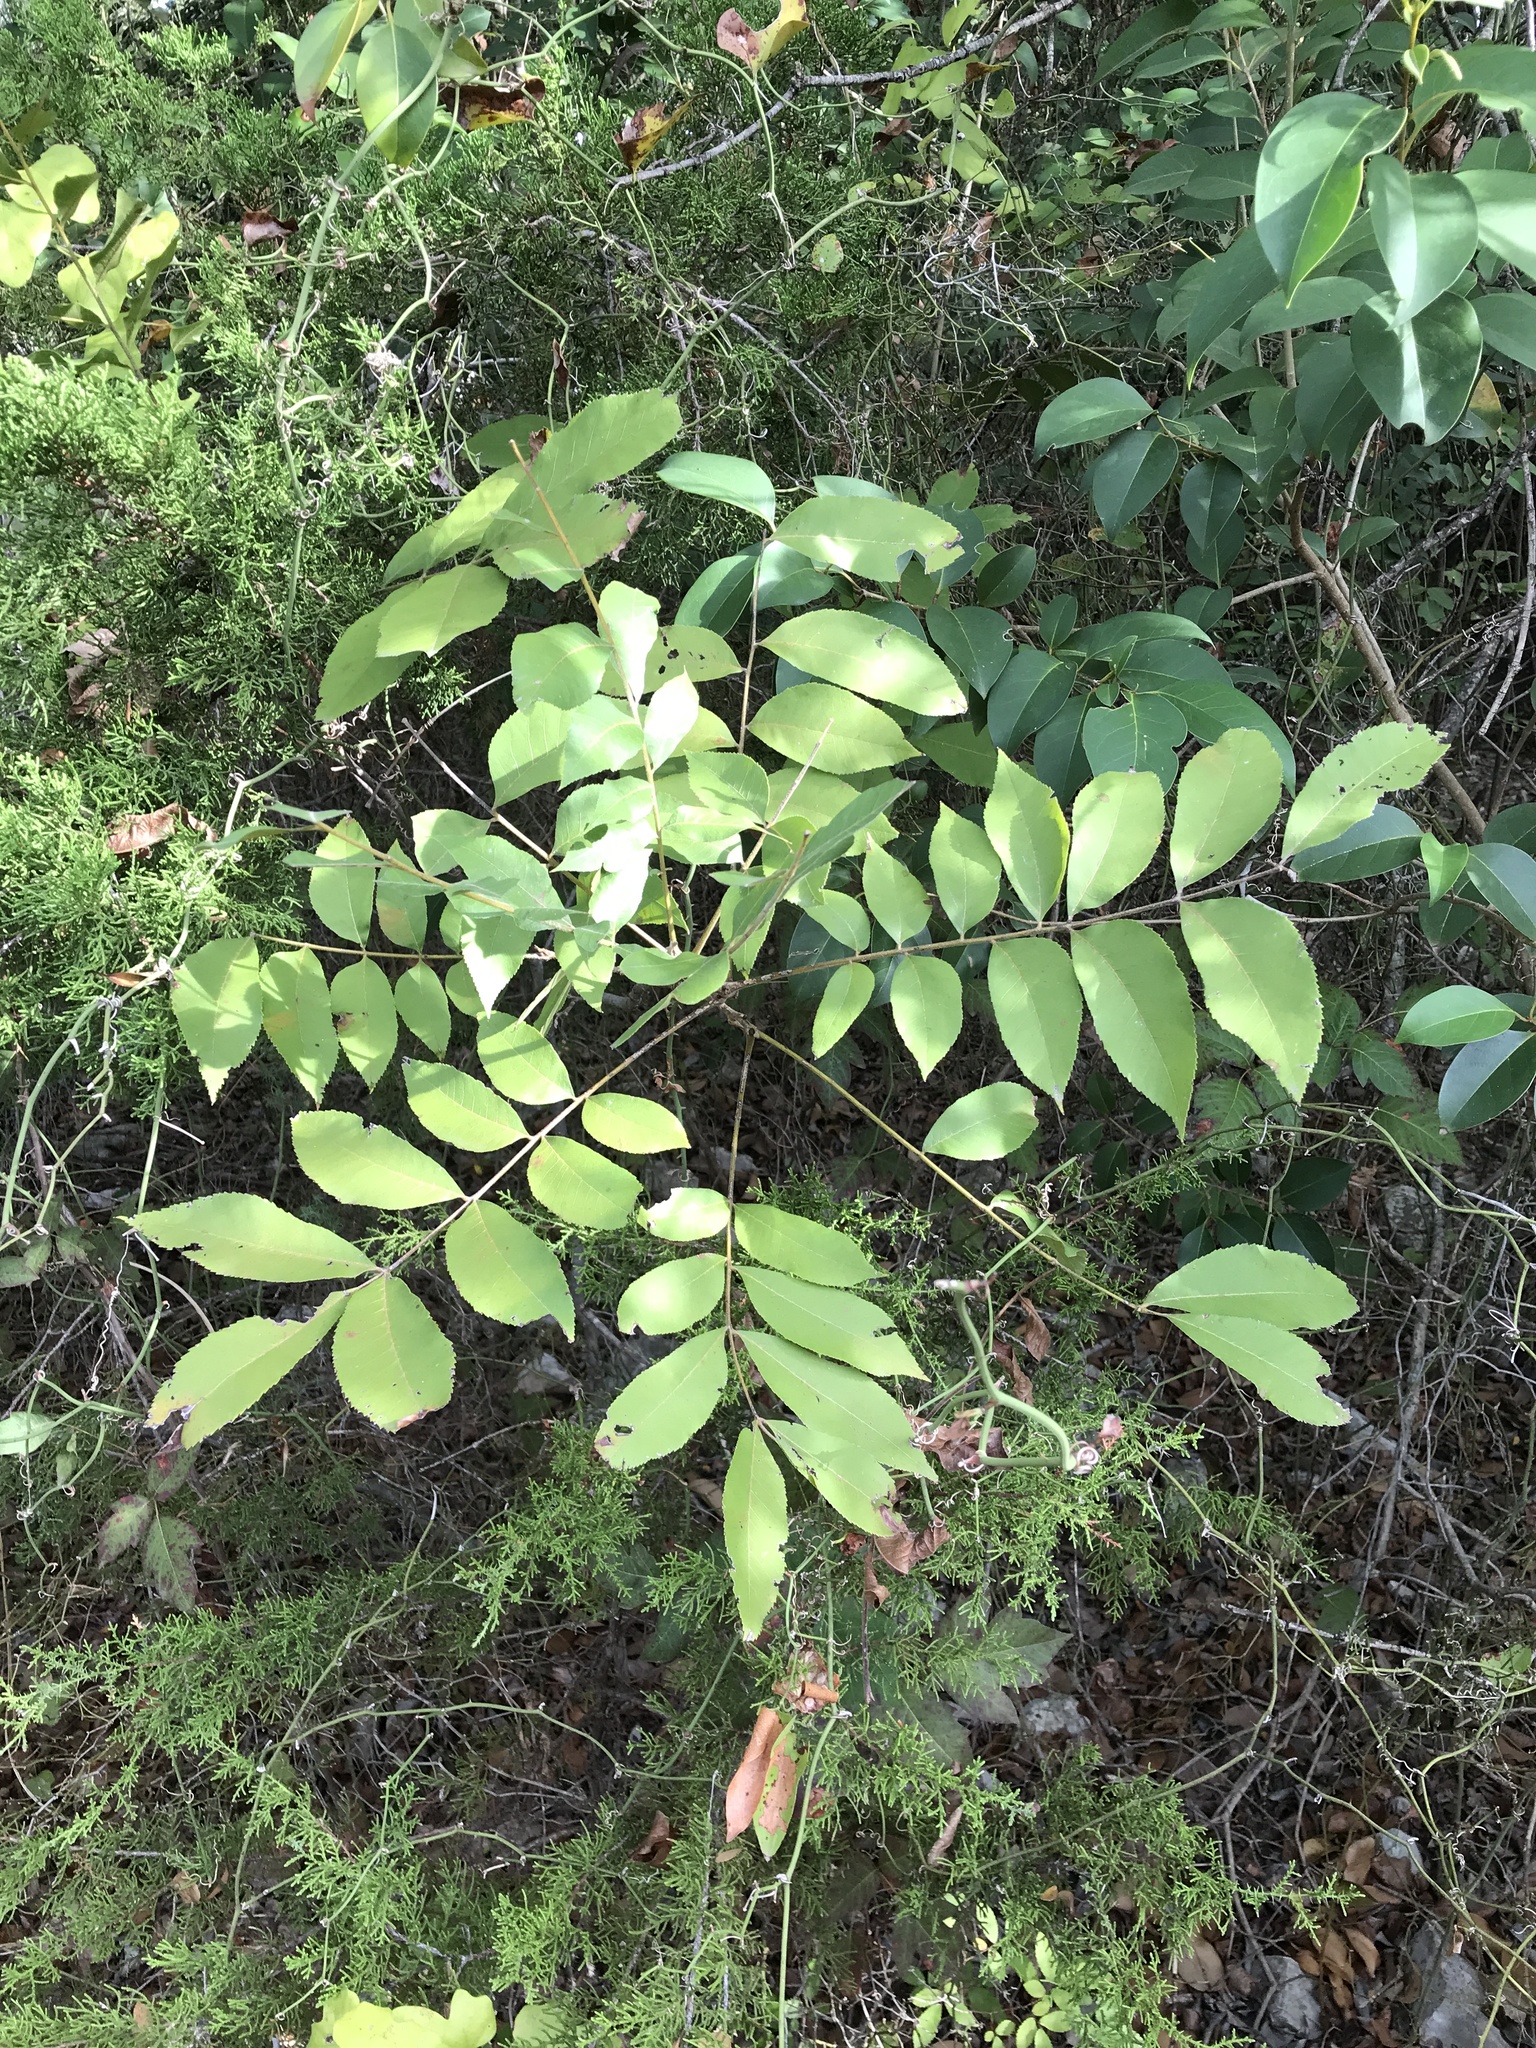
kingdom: Plantae
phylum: Tracheophyta
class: Magnoliopsida
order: Fagales
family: Juglandaceae
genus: Carya
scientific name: Carya illinoinensis
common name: Pecan
